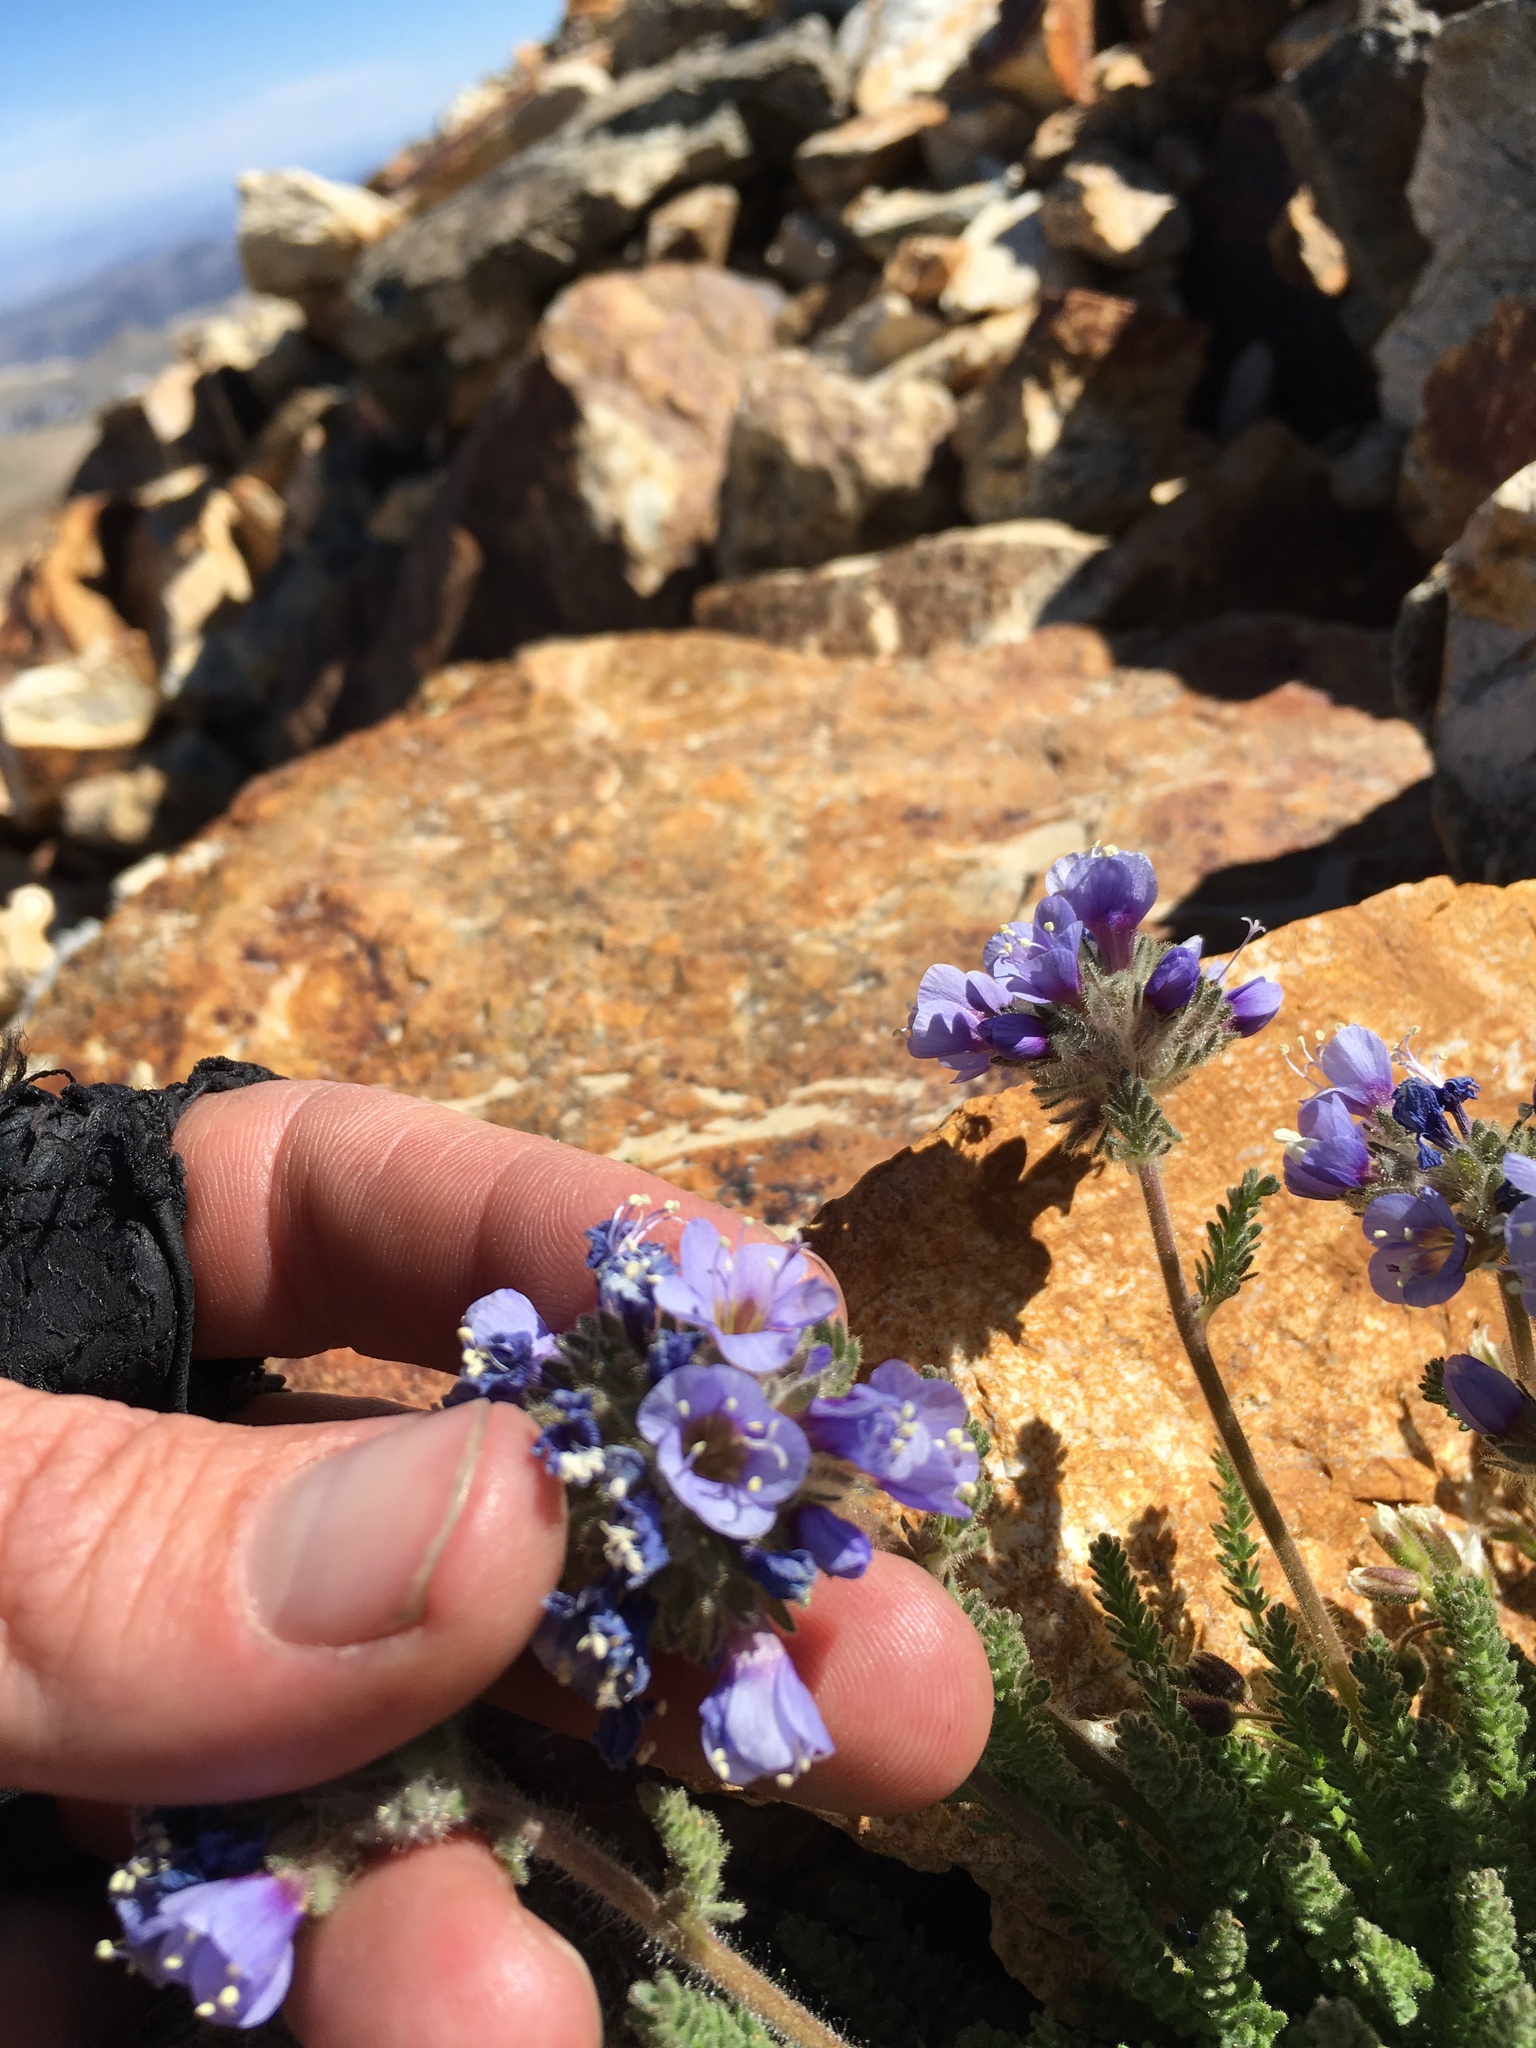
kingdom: Plantae
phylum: Tracheophyta
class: Magnoliopsida
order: Ericales
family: Polemoniaceae
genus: Polemonium
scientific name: Polemonium chartaceum
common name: Mason's sky-pilot
